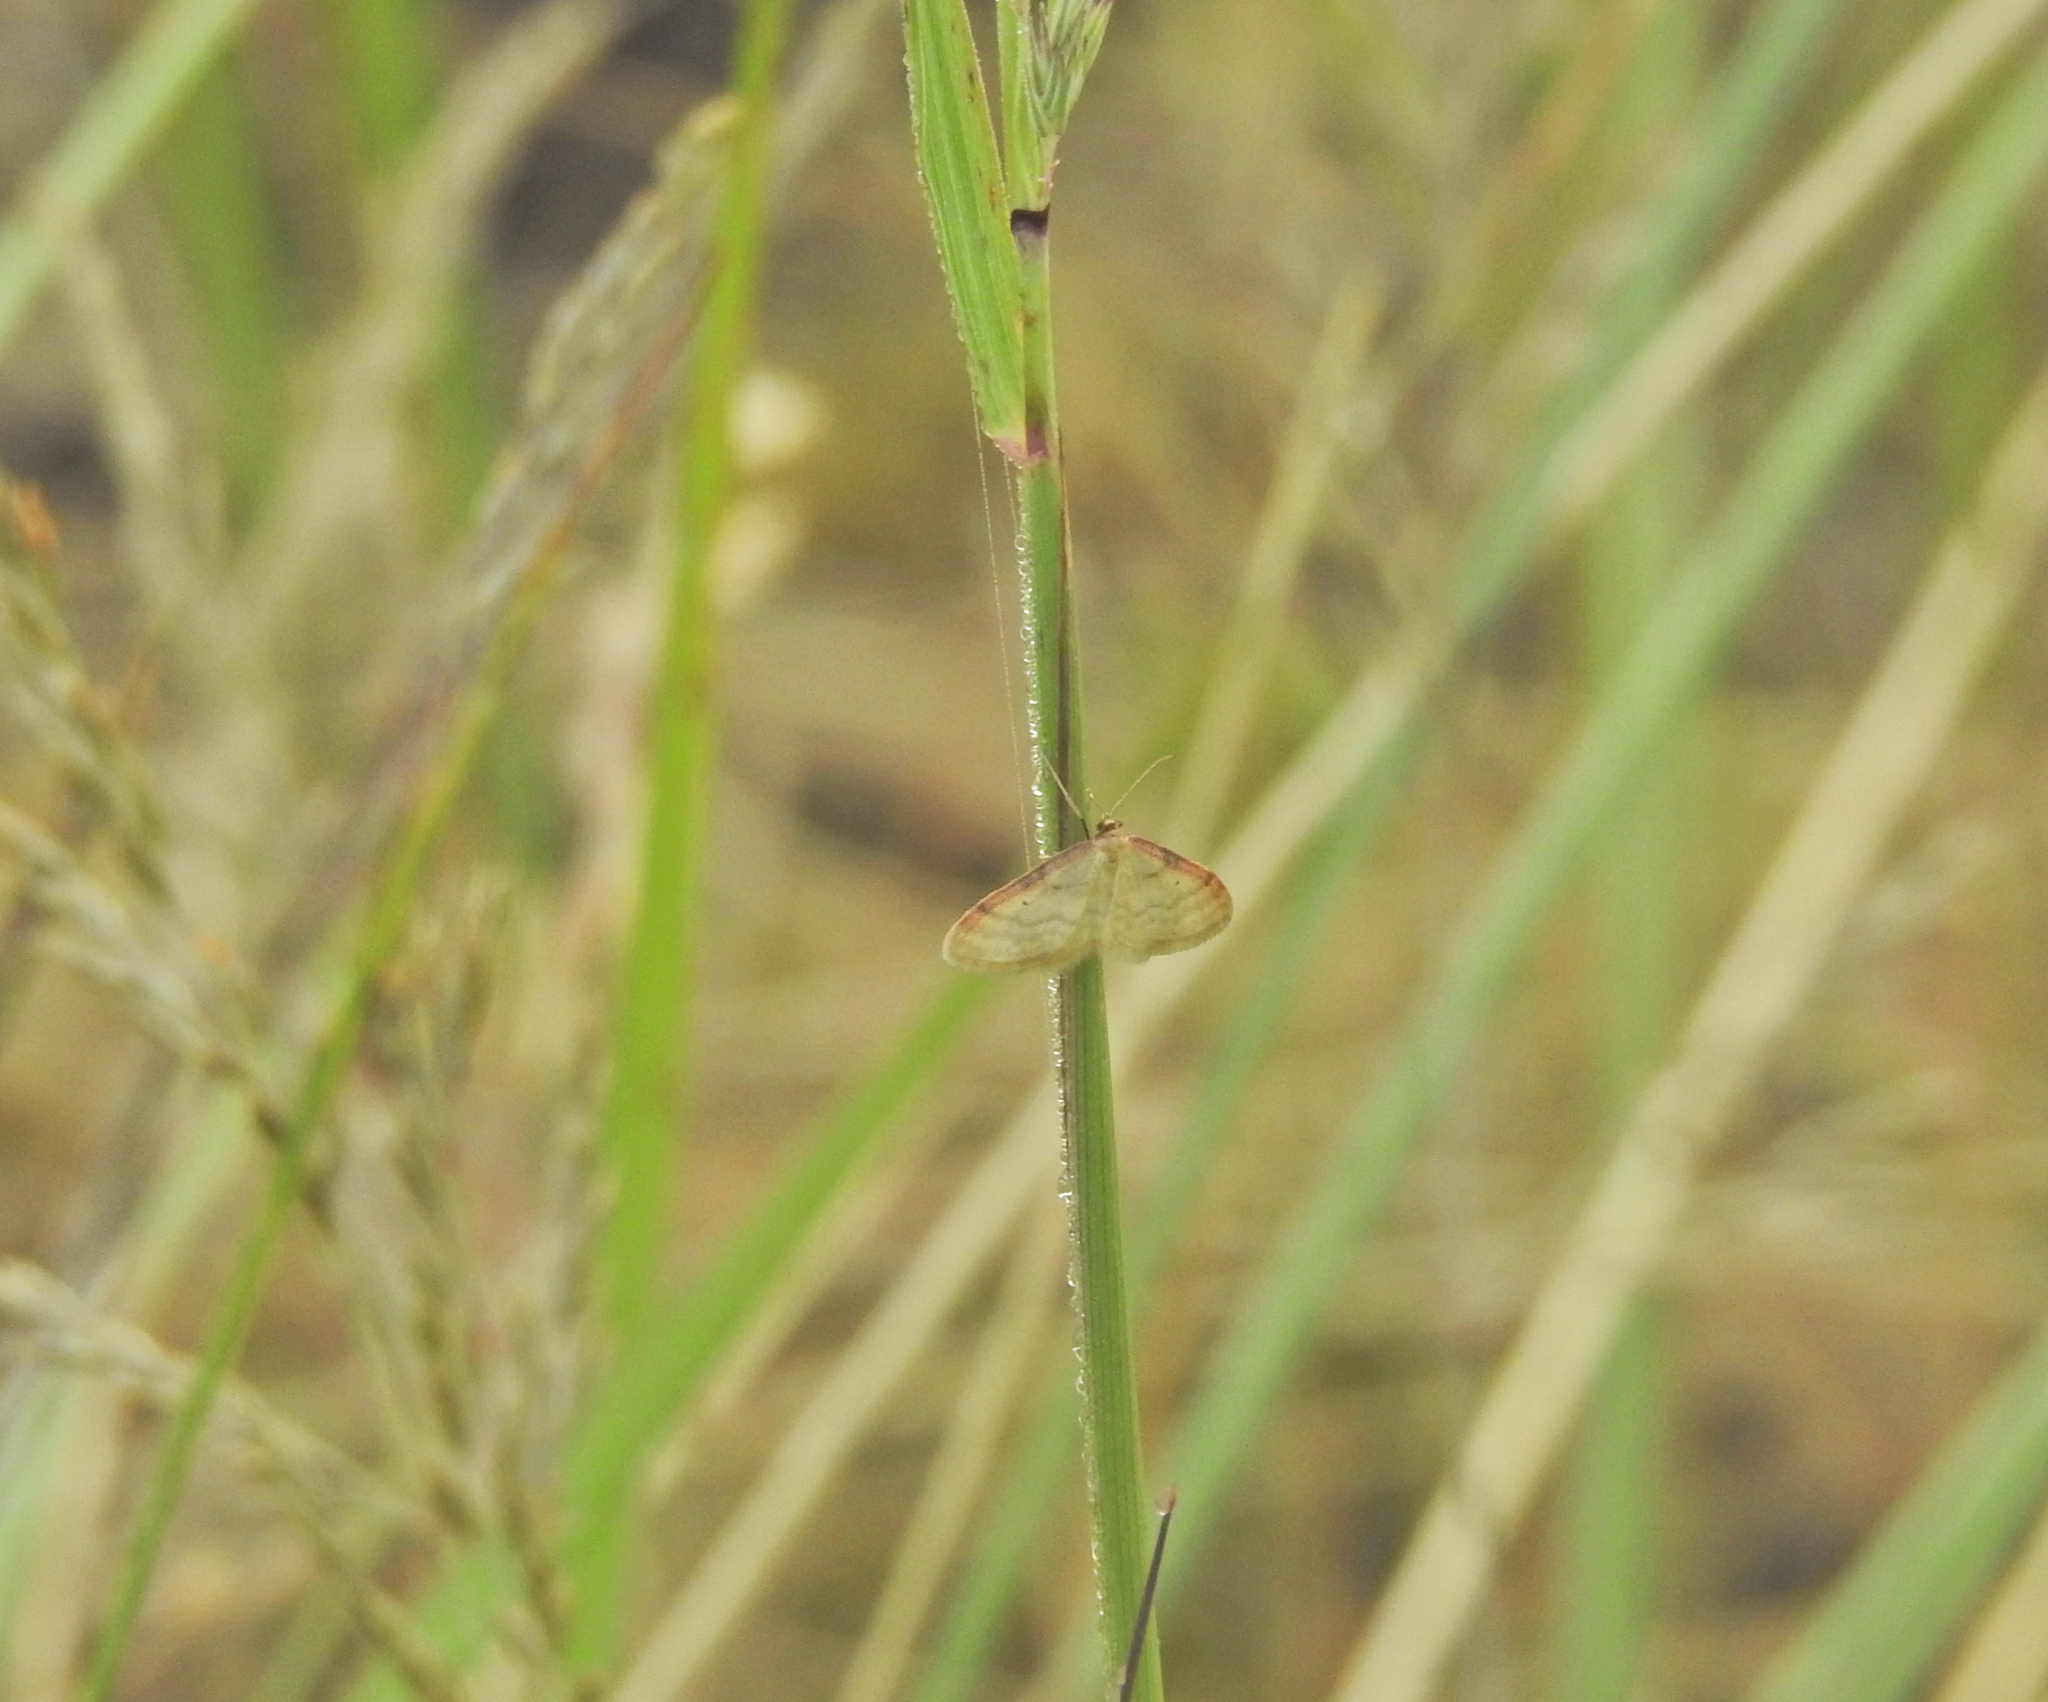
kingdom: Animalia
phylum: Arthropoda
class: Insecta
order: Lepidoptera
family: Geometridae
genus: Idaea
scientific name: Idaea humiliata
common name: Isle of wight wave
